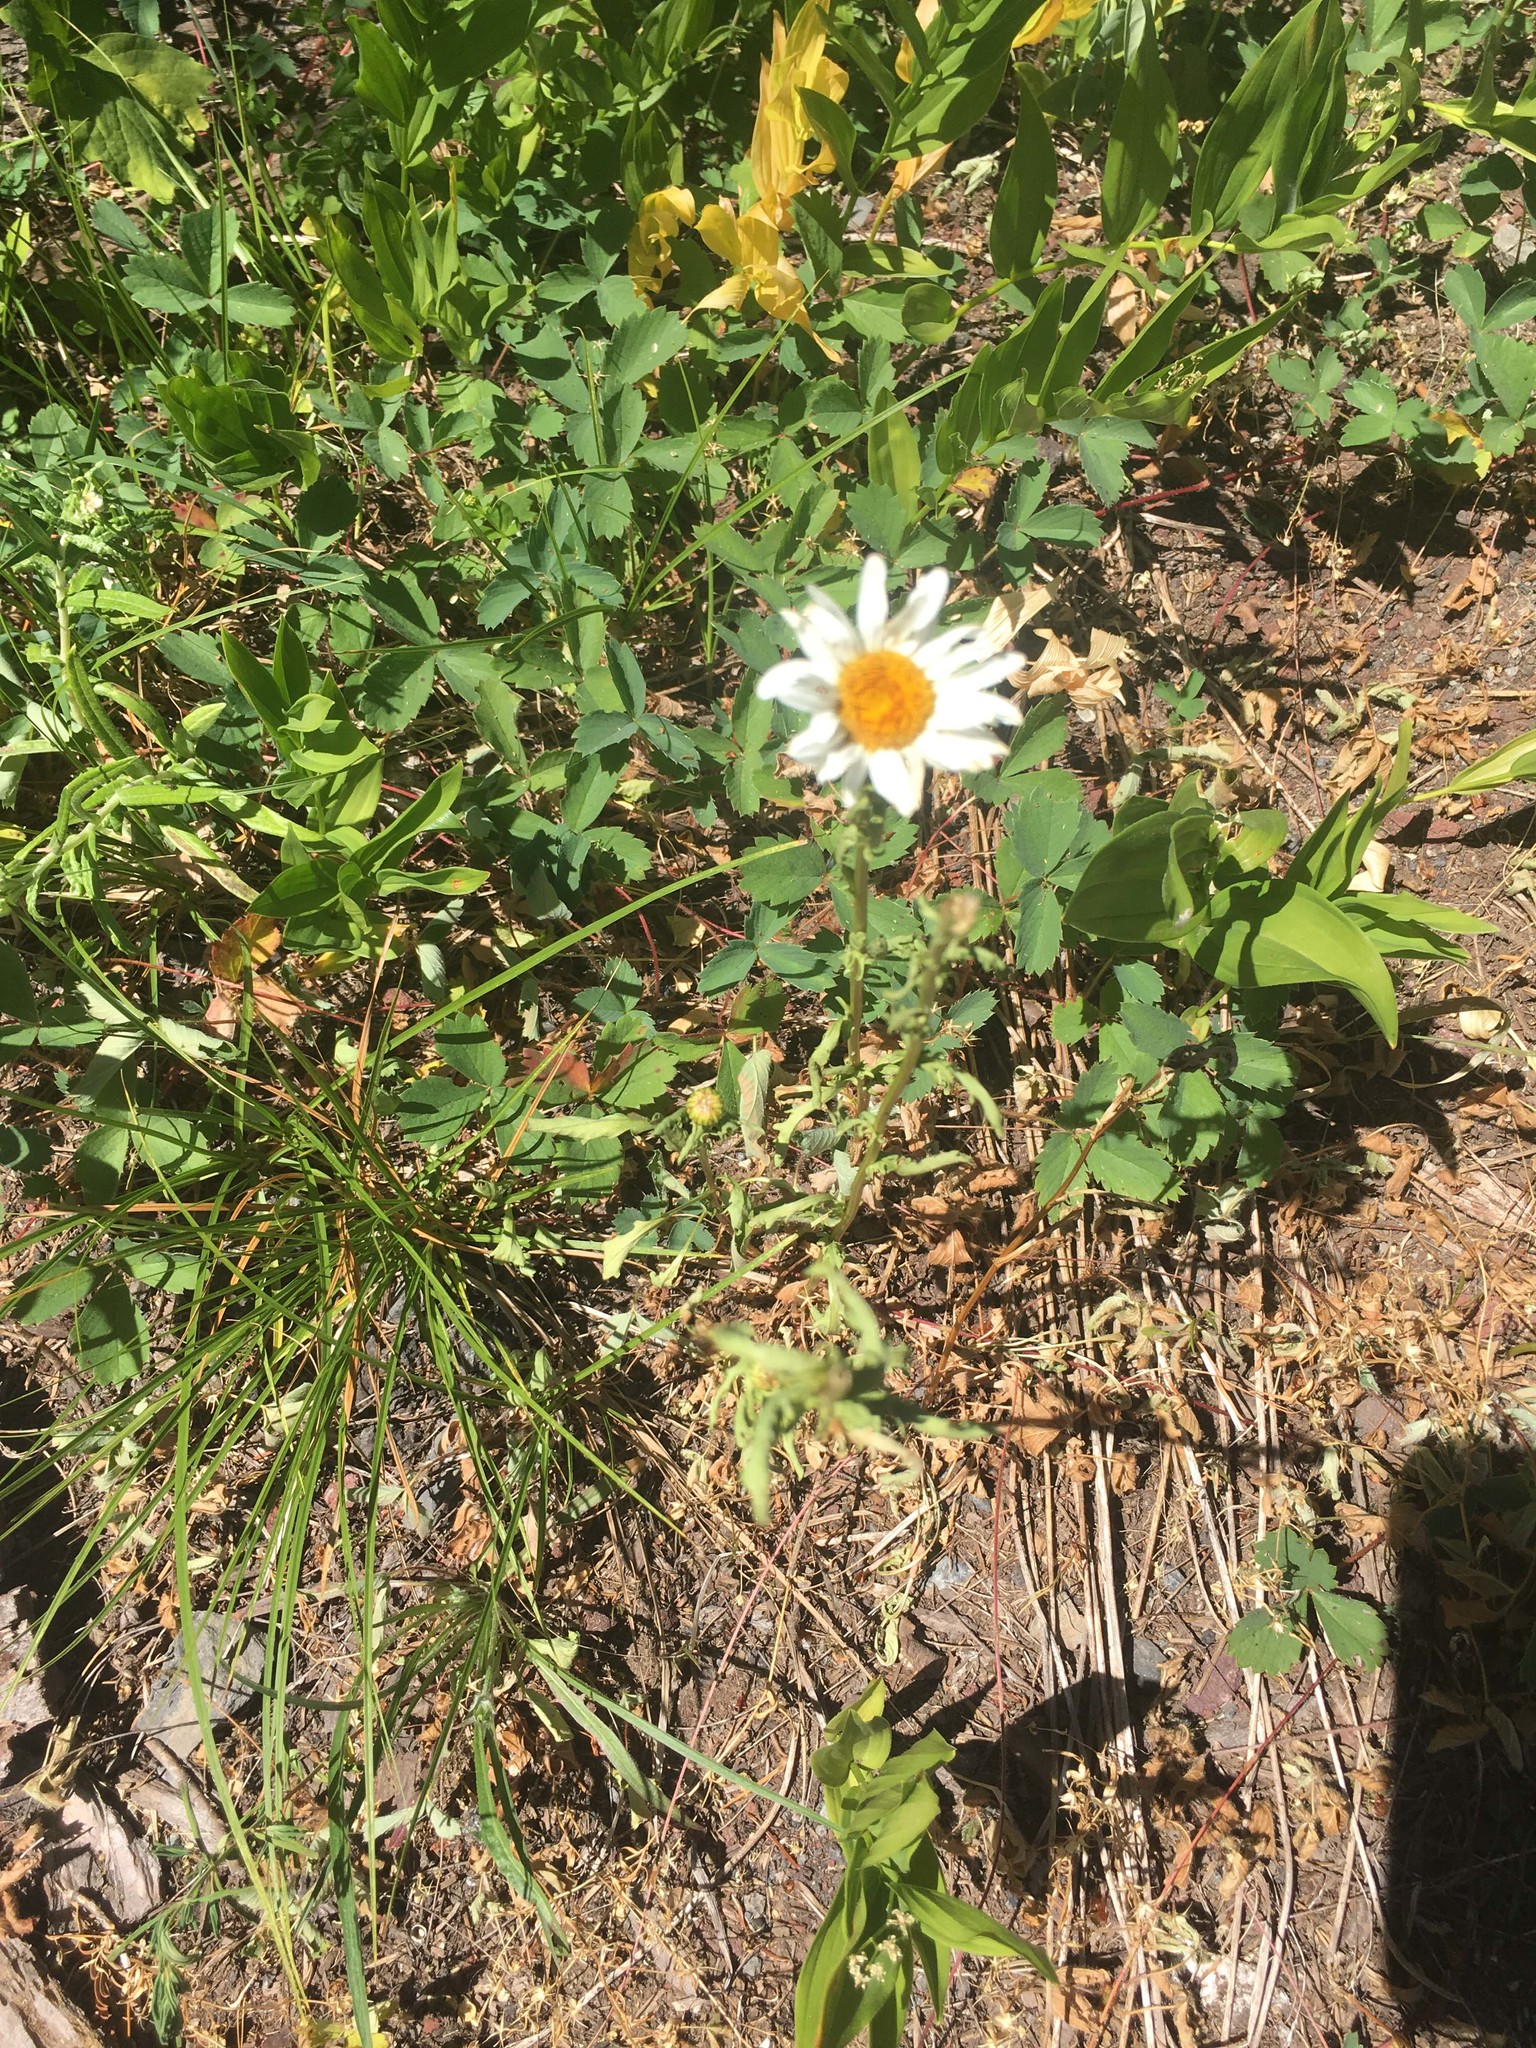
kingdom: Plantae
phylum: Tracheophyta
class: Magnoliopsida
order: Asterales
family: Asteraceae
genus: Leucanthemum
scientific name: Leucanthemum vulgare
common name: Oxeye daisy
